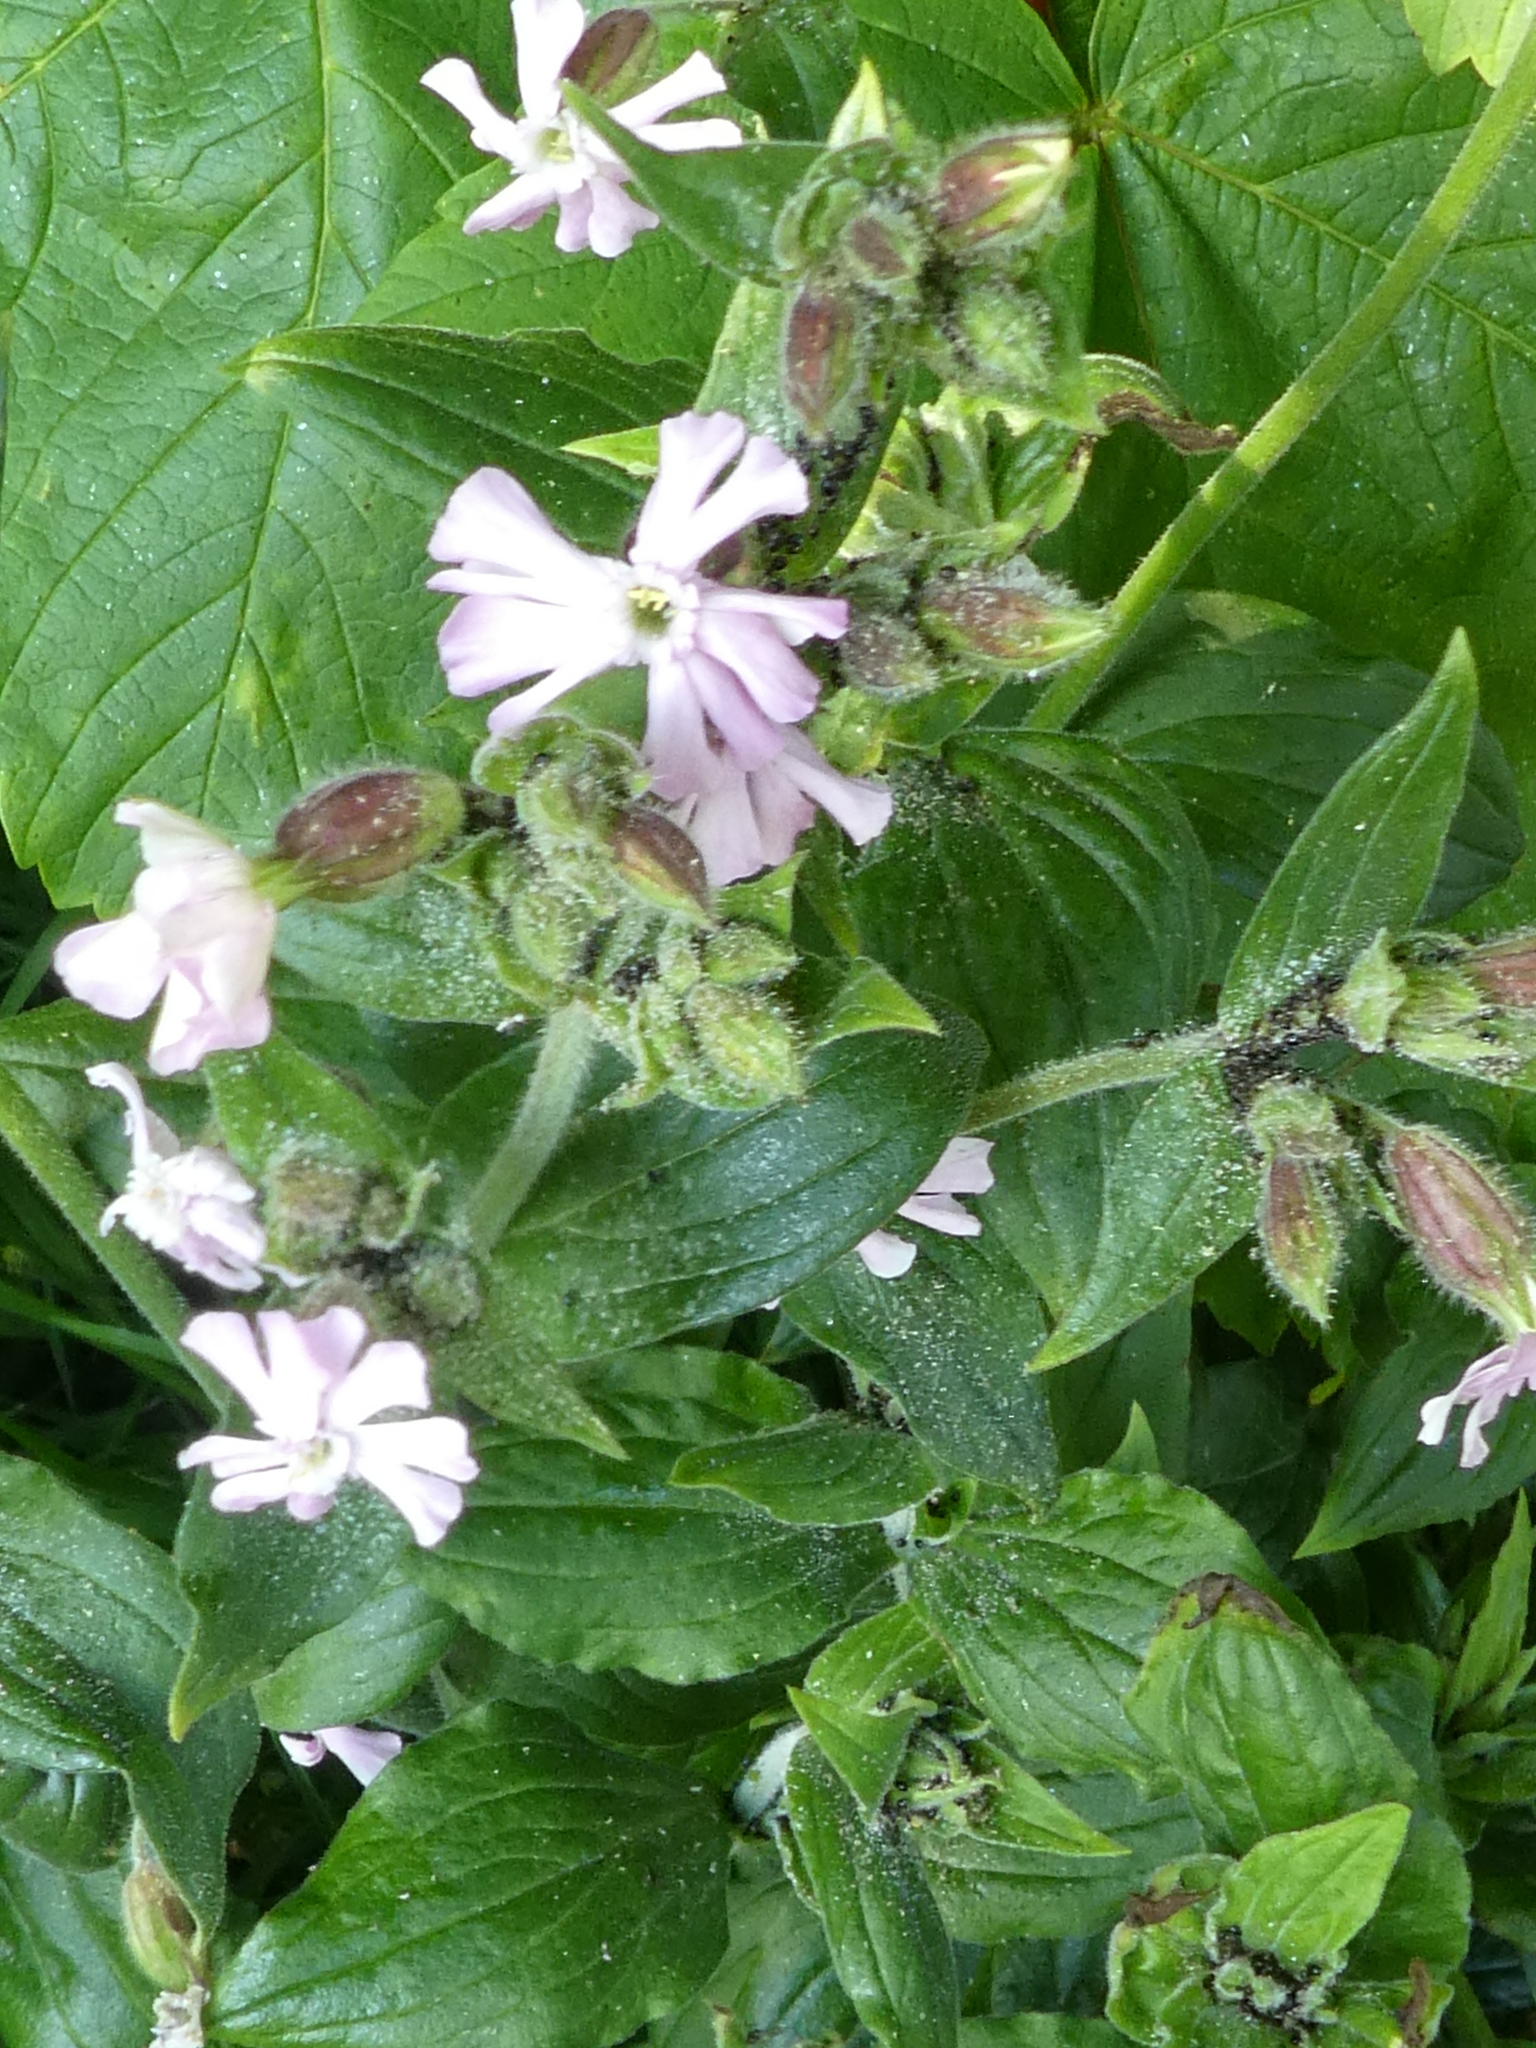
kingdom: Plantae
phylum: Tracheophyta
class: Magnoliopsida
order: Caryophyllales
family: Caryophyllaceae
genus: Silene
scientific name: Silene hampeana
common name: Catchfly
